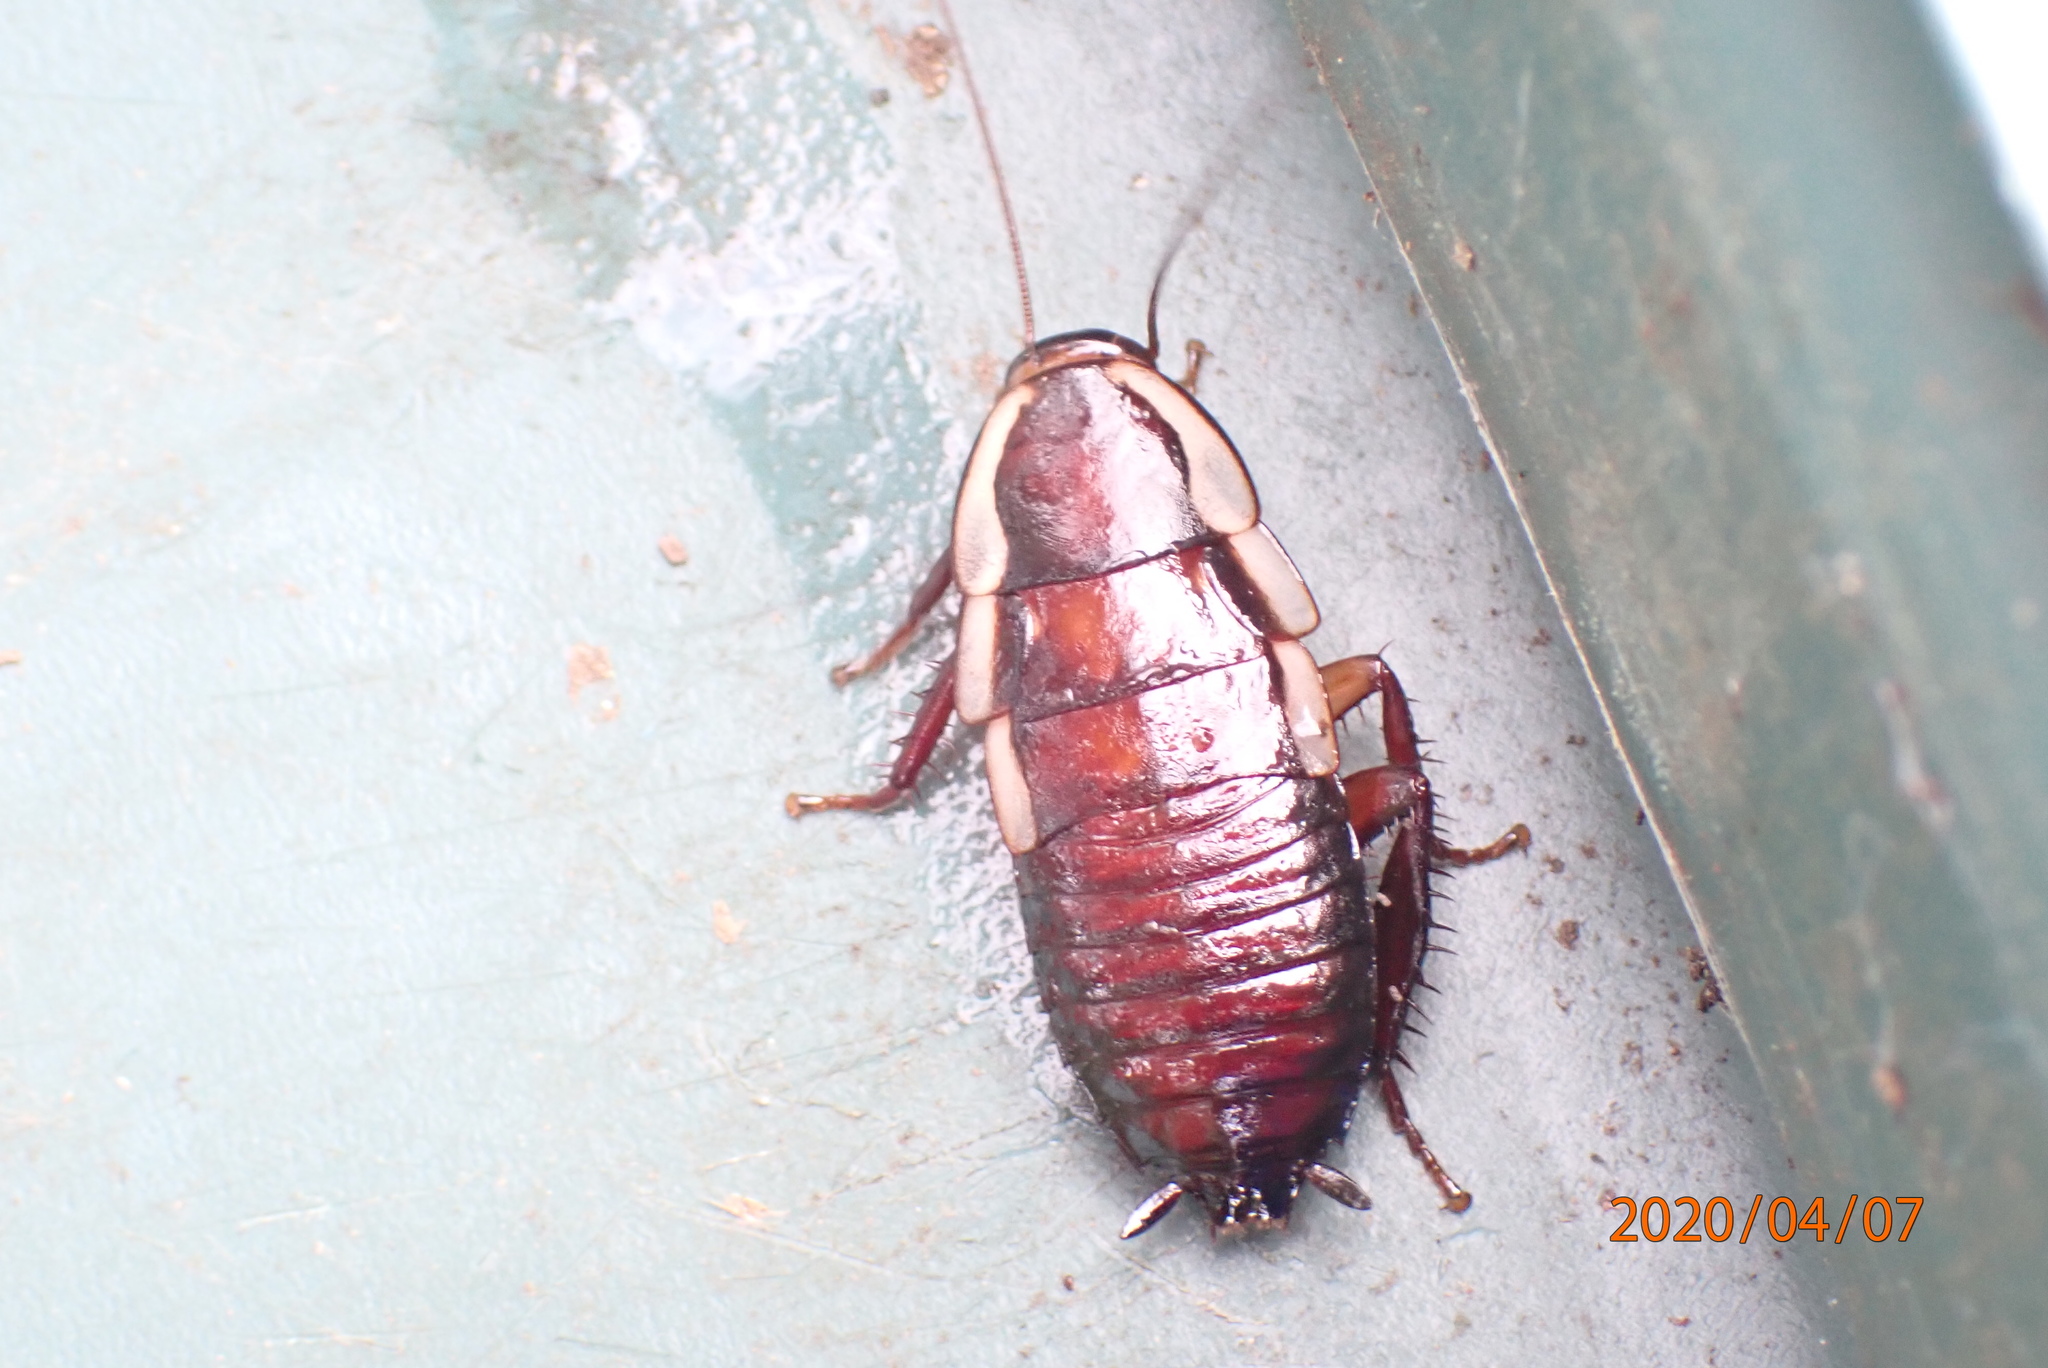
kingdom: Animalia
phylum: Arthropoda
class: Insecta
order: Blattodea
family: Blattidae
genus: Drymaplaneta
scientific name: Drymaplaneta semivitta
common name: Gisborne cockroach
